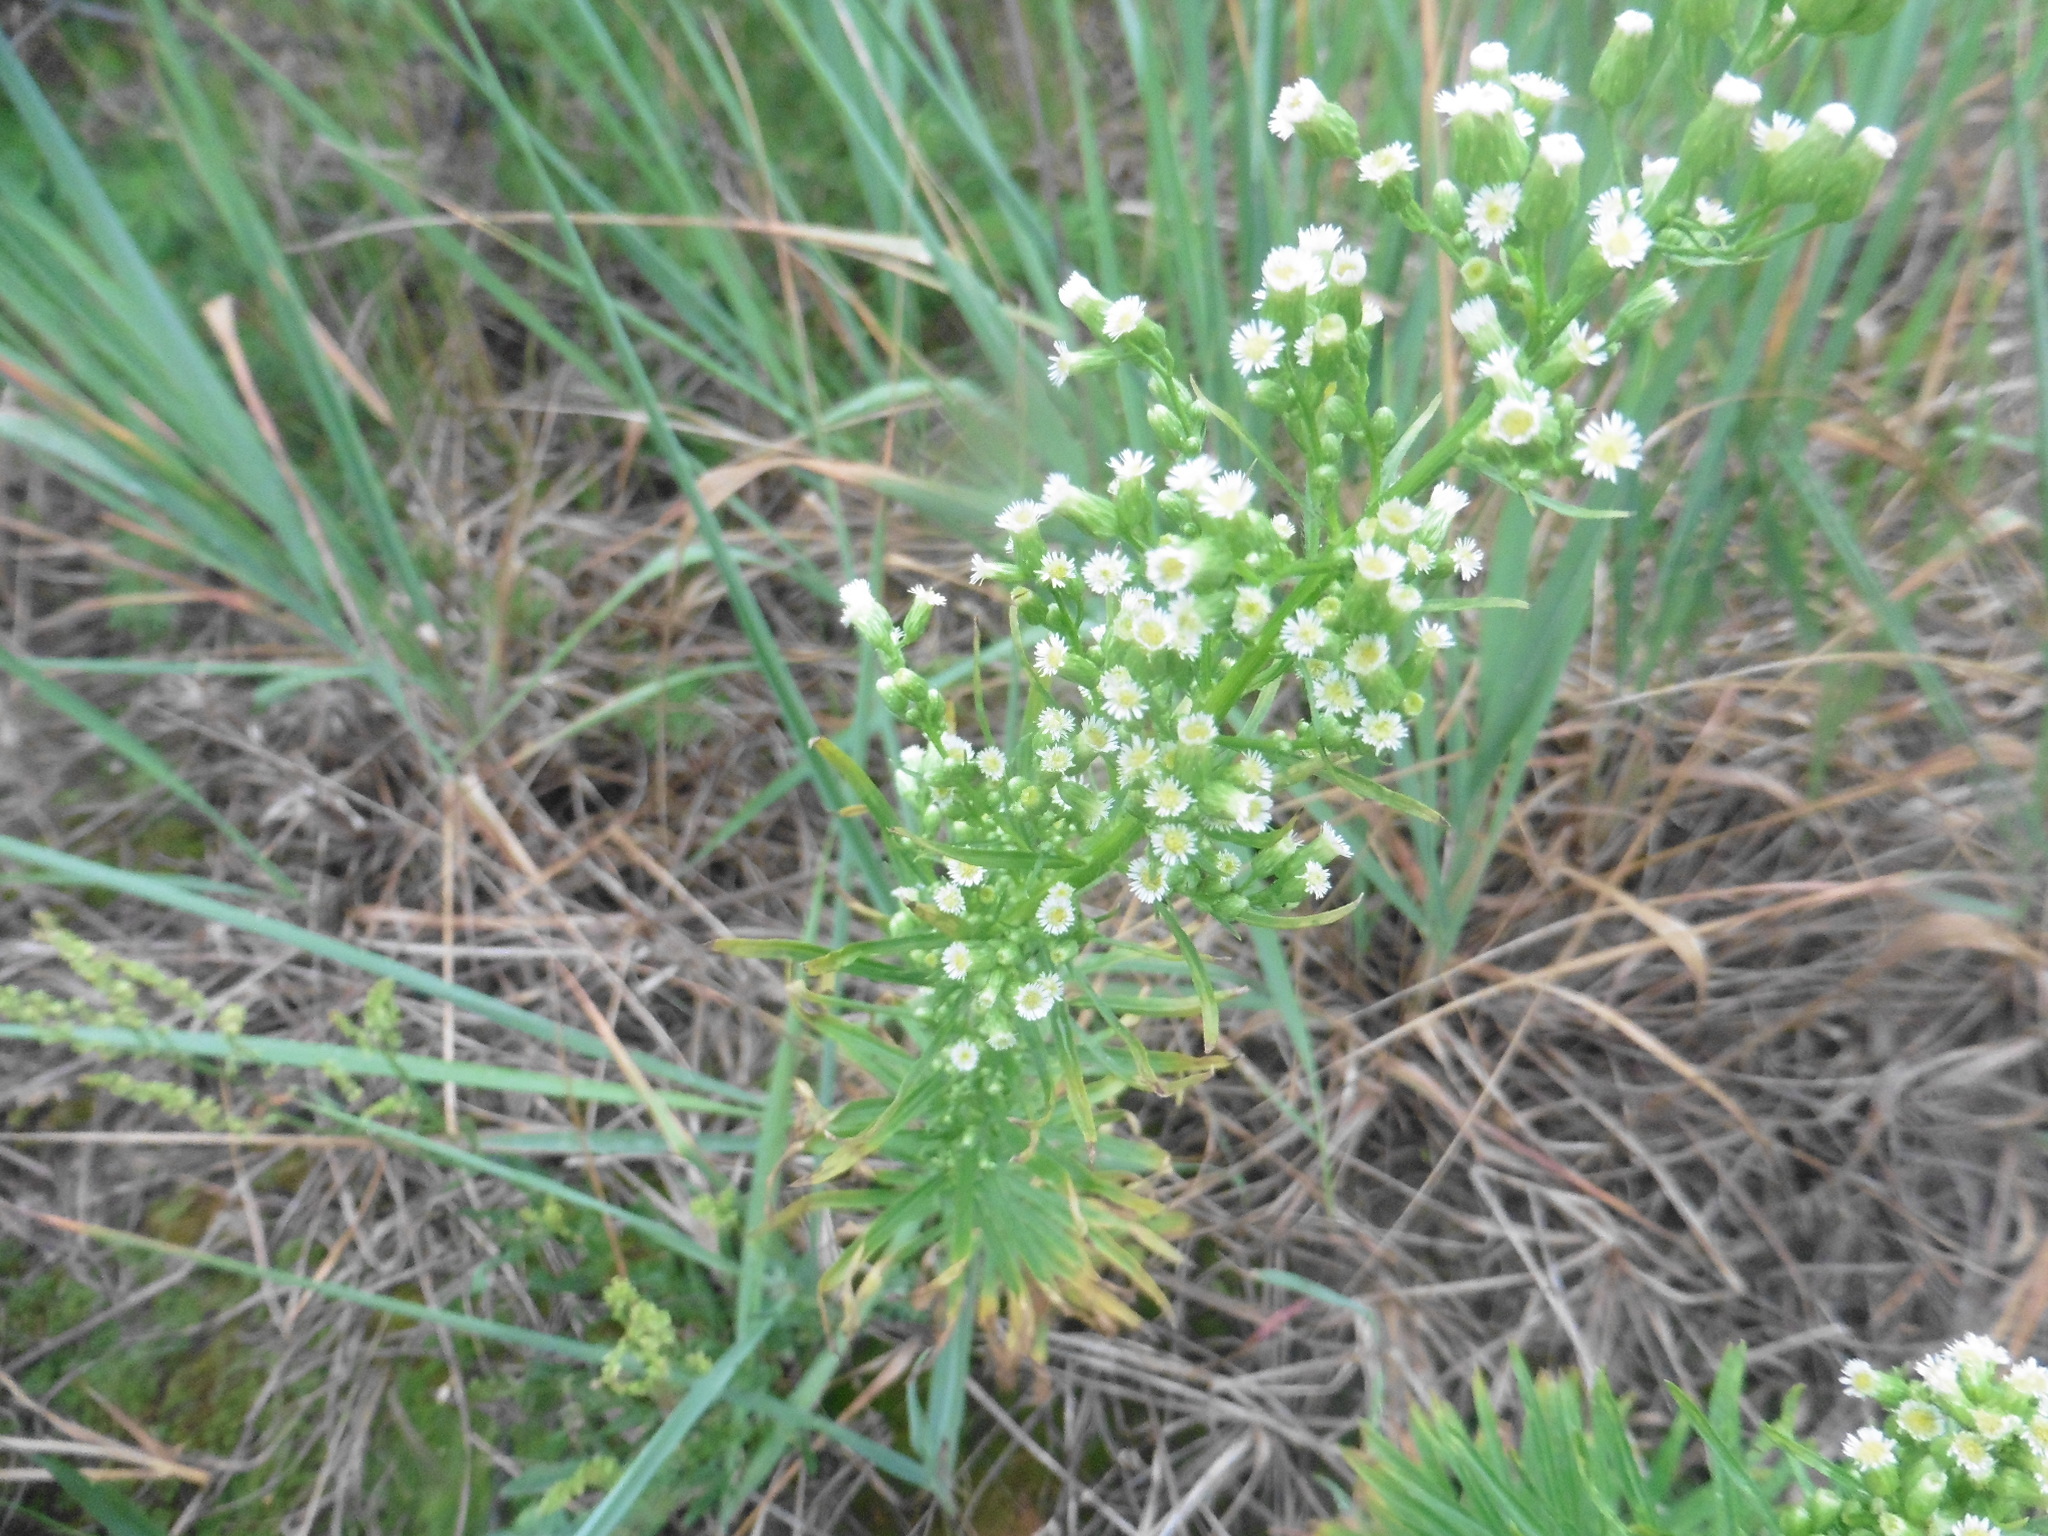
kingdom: Plantae
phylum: Tracheophyta
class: Magnoliopsida
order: Asterales
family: Asteraceae
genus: Erigeron
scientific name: Erigeron canadensis
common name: Canadian fleabane
